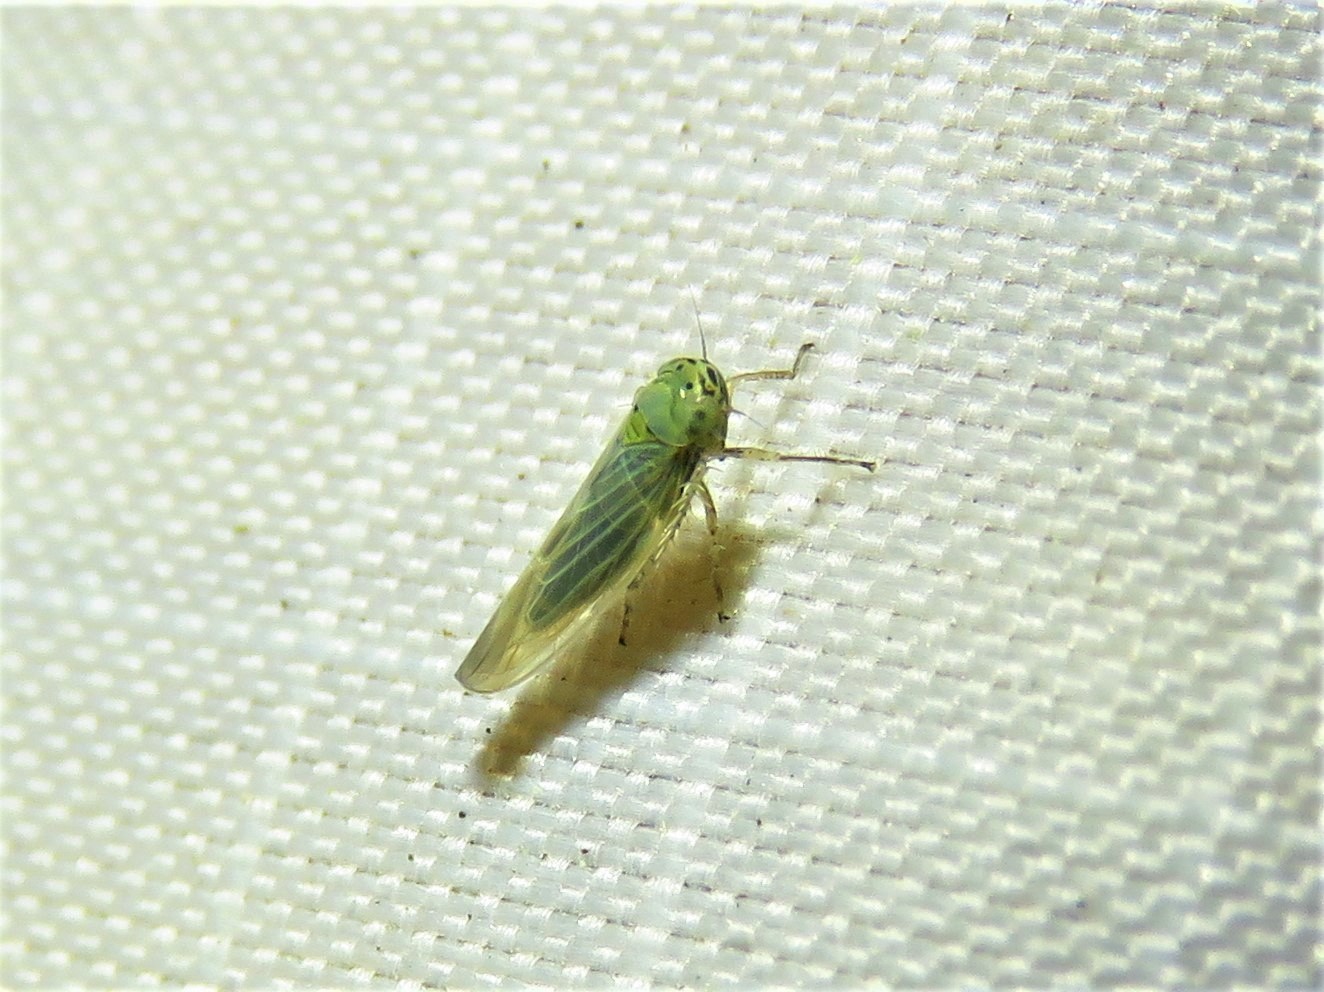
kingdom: Animalia
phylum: Arthropoda
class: Insecta
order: Hemiptera
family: Cicadellidae
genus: Macrosteles
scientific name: Macrosteles quadrilineatus
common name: Aster leafhopper
